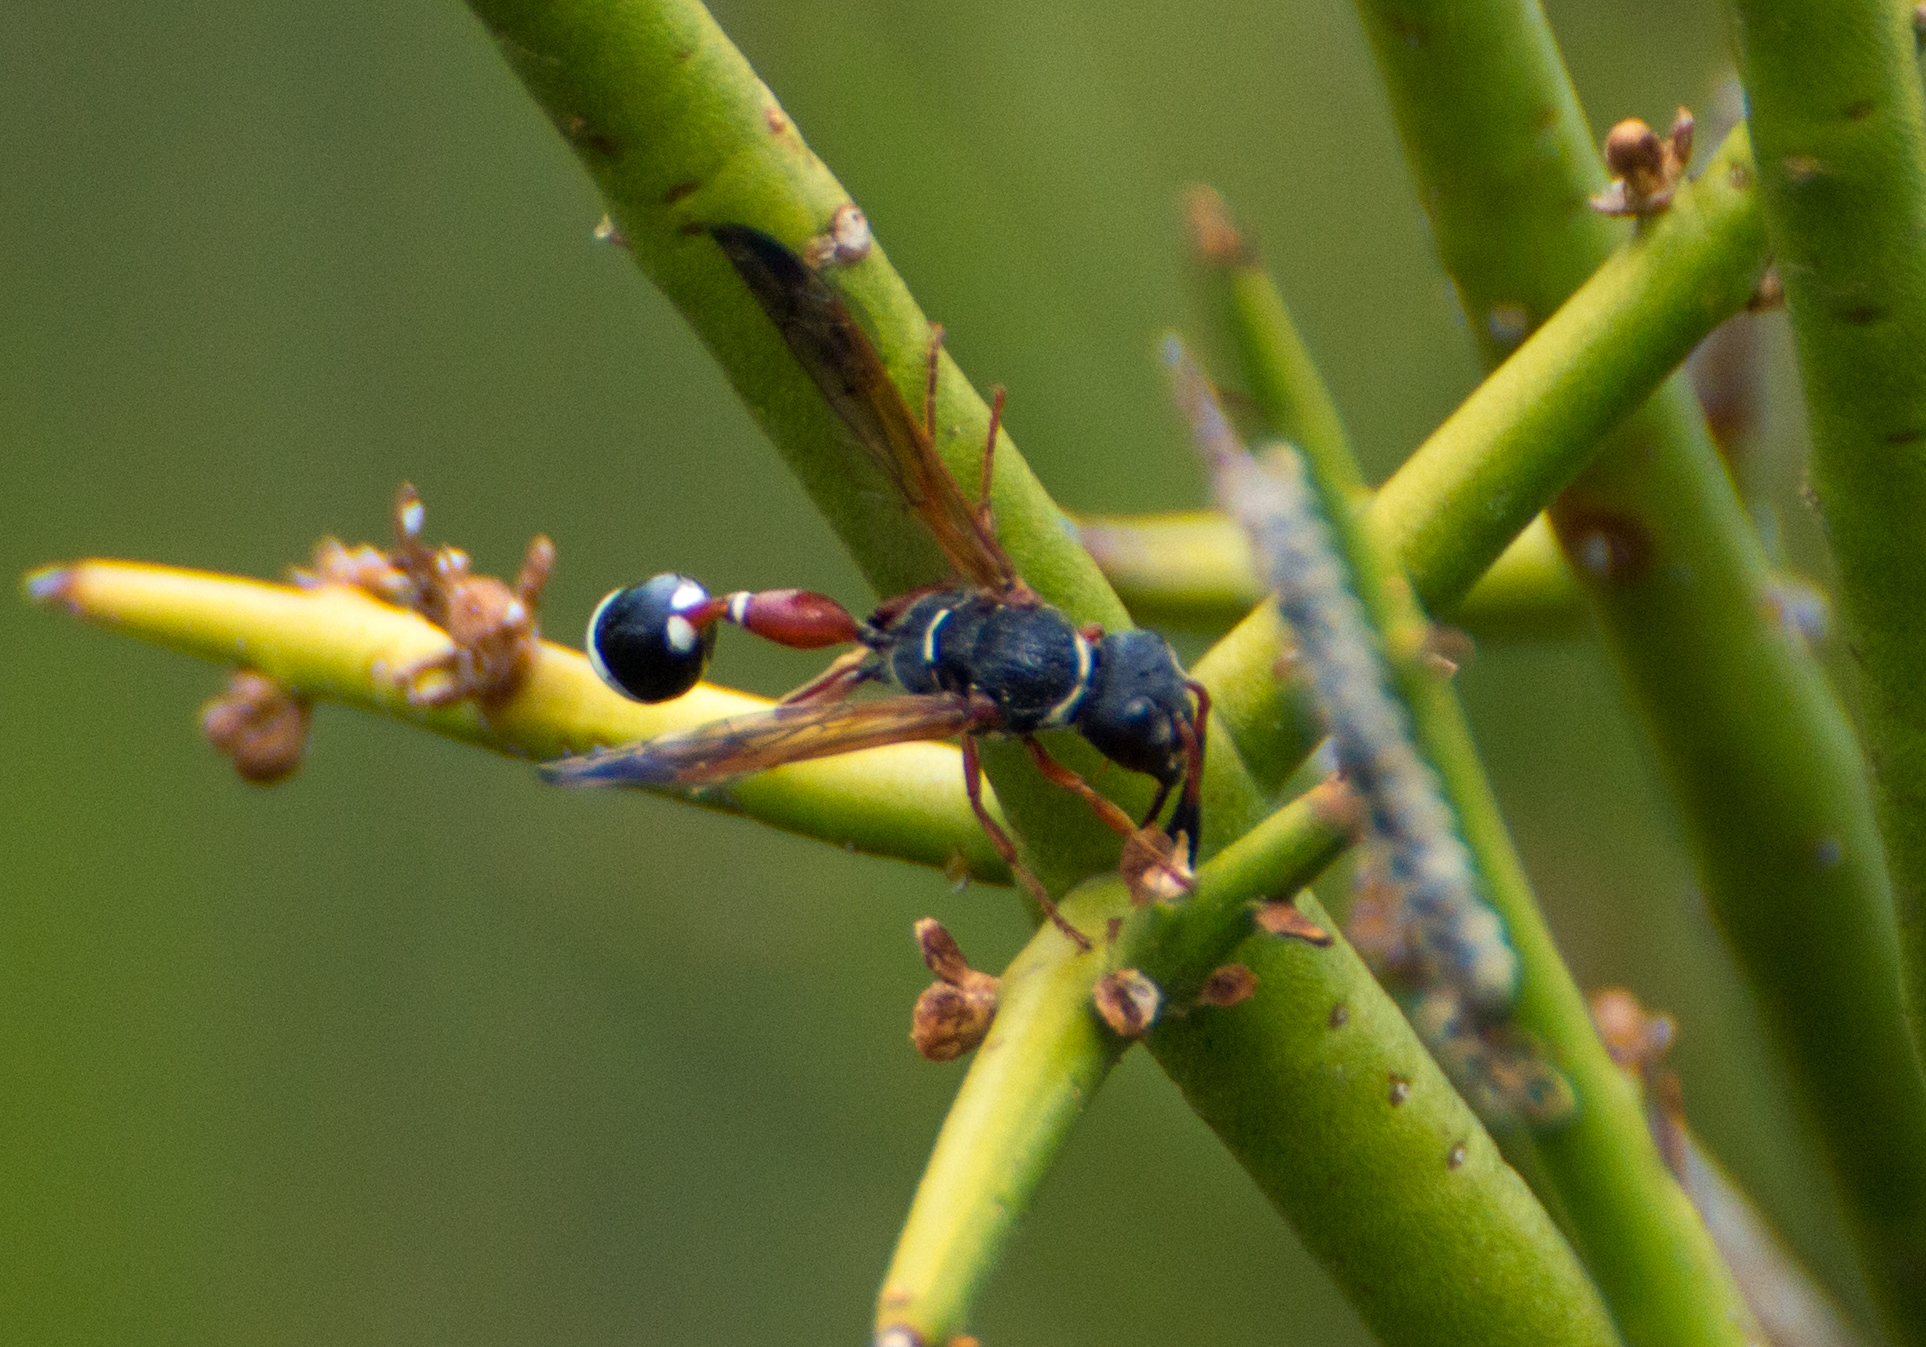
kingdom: Animalia
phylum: Arthropoda
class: Insecta
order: Hymenoptera
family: Eumenidae
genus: Zethus
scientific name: Zethus caridei
